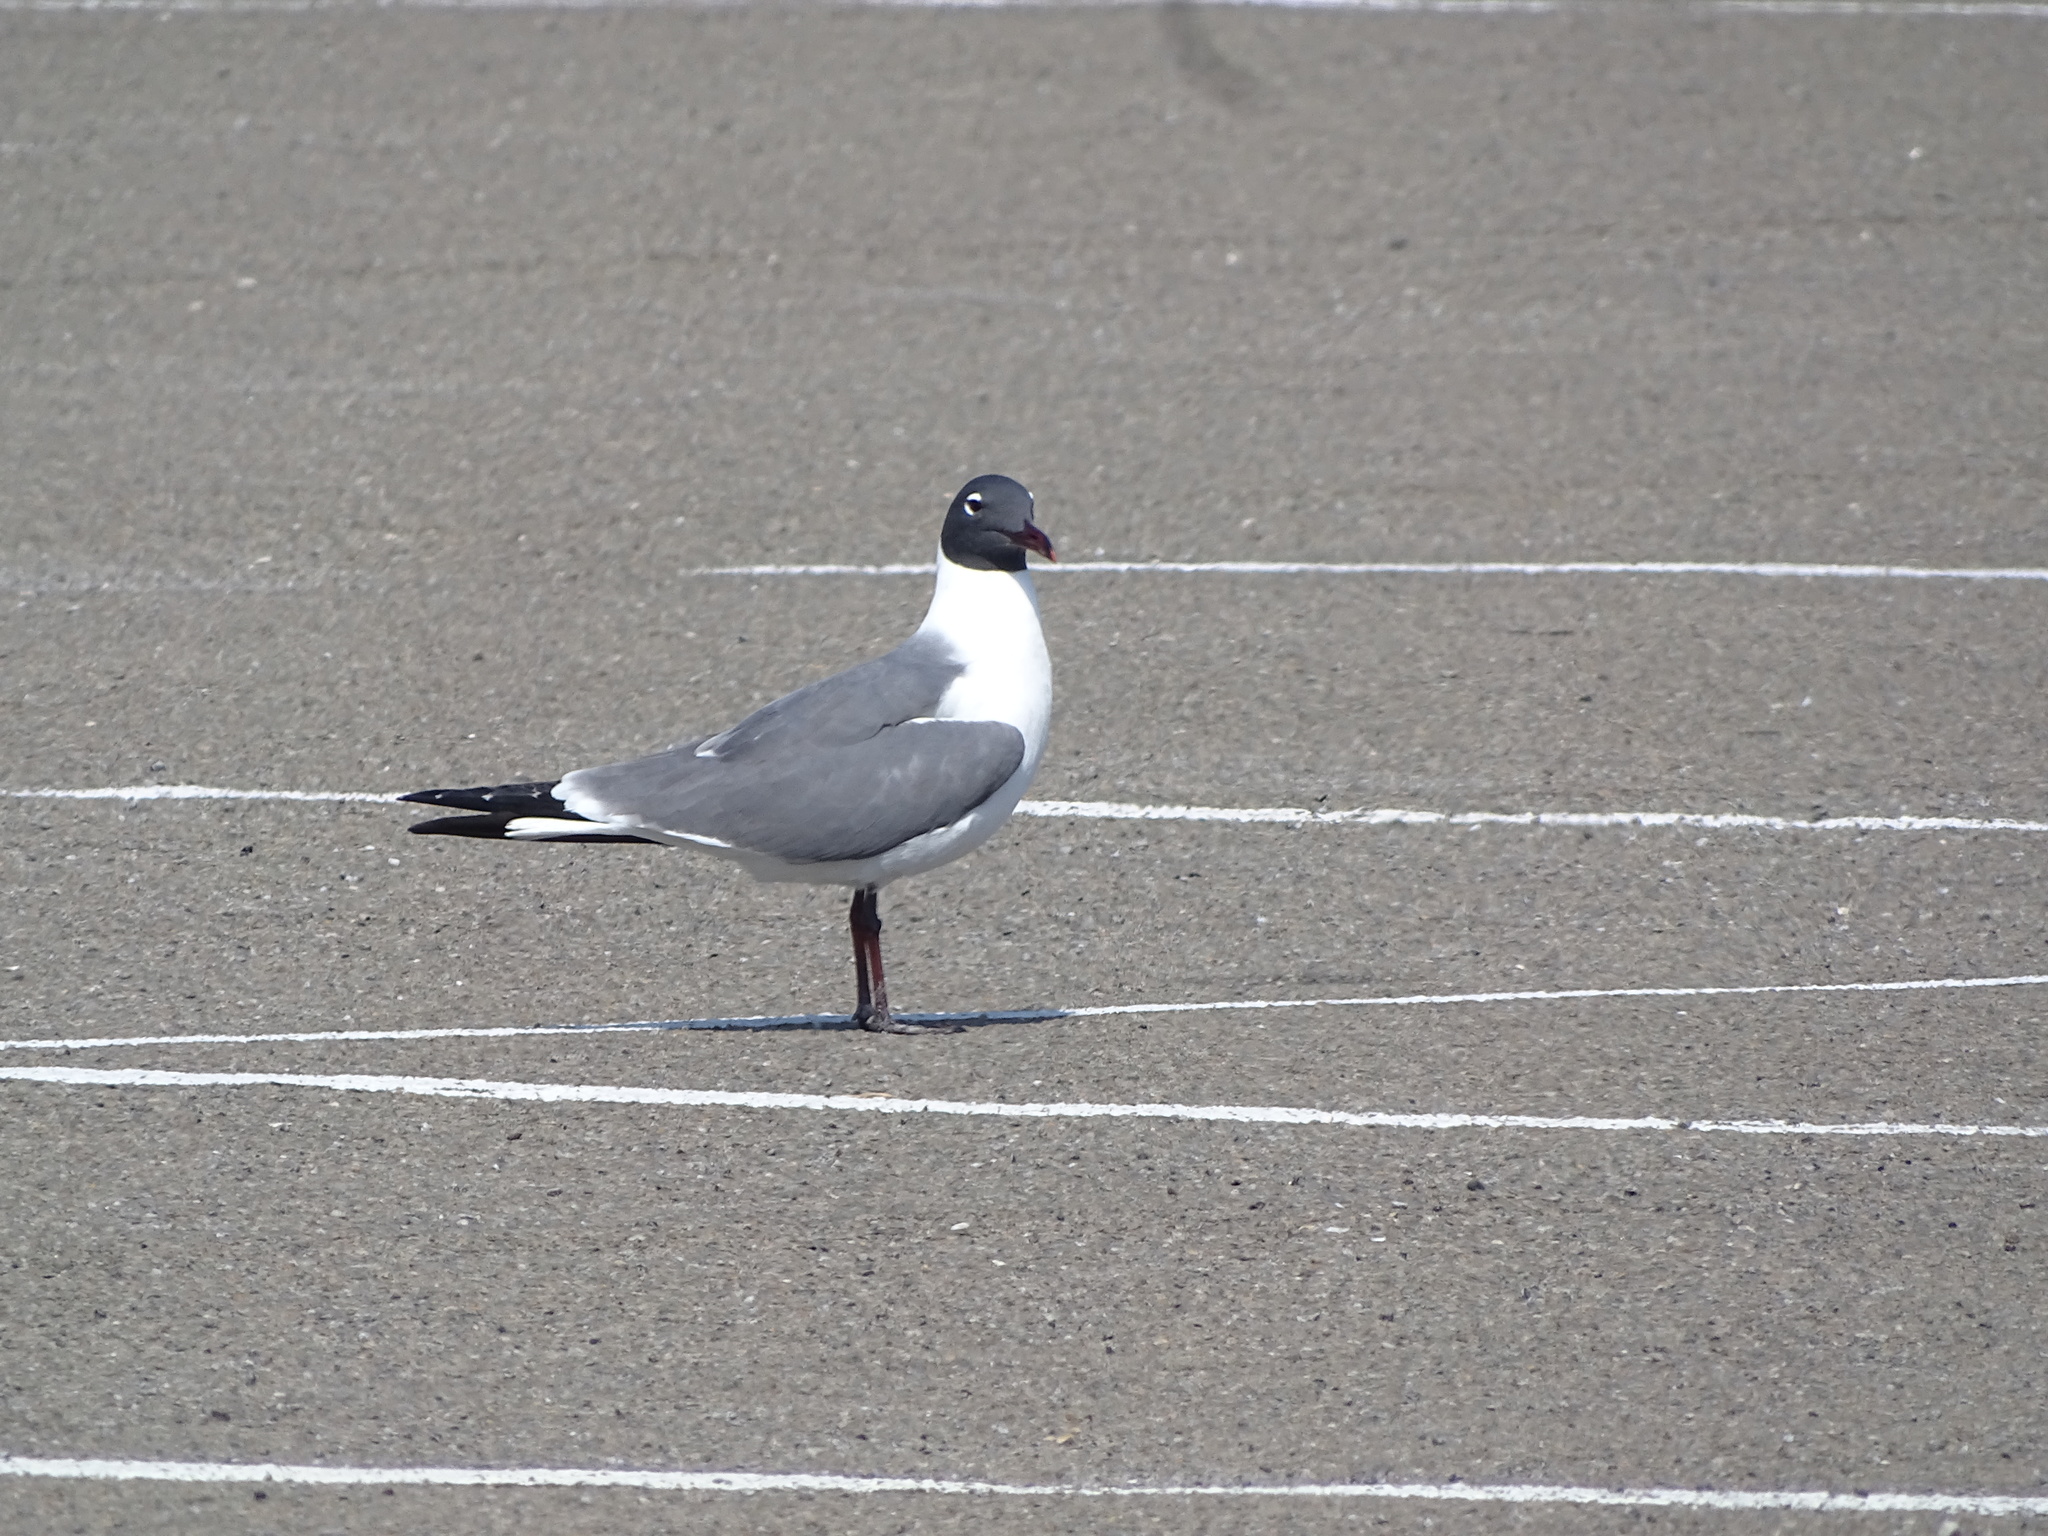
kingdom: Animalia
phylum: Chordata
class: Aves
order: Charadriiformes
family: Laridae
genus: Leucophaeus
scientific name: Leucophaeus atricilla
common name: Laughing gull
